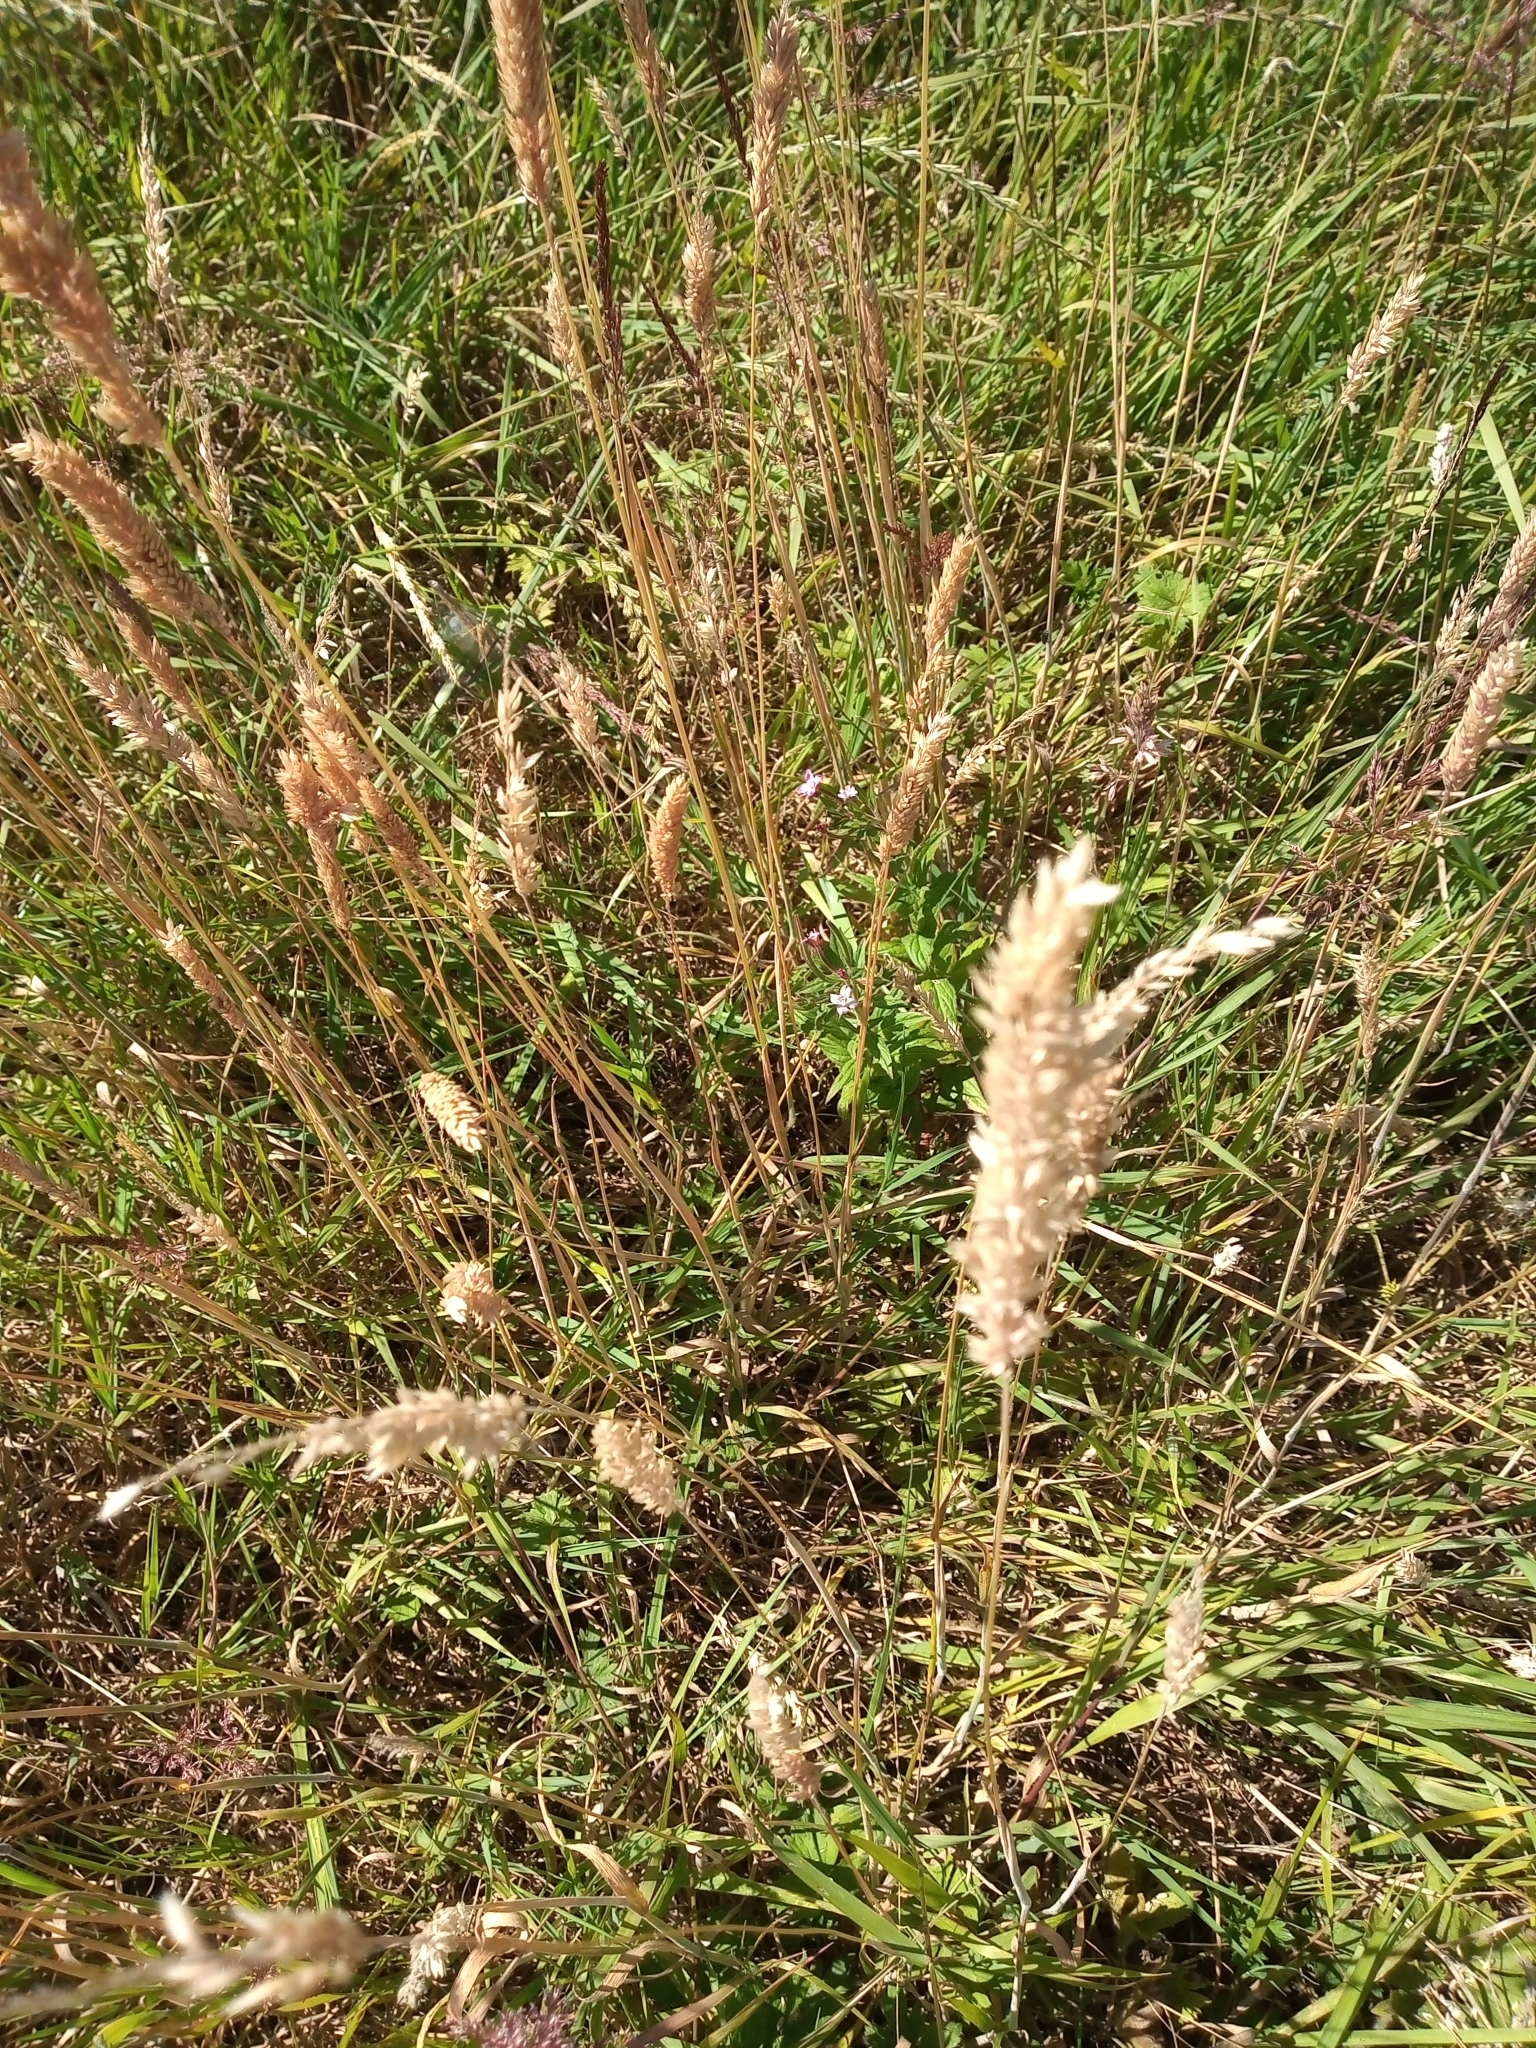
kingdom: Plantae
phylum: Tracheophyta
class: Liliopsida
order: Poales
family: Poaceae
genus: Anthoxanthum
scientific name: Anthoxanthum odoratum
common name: Sweet vernalgrass
